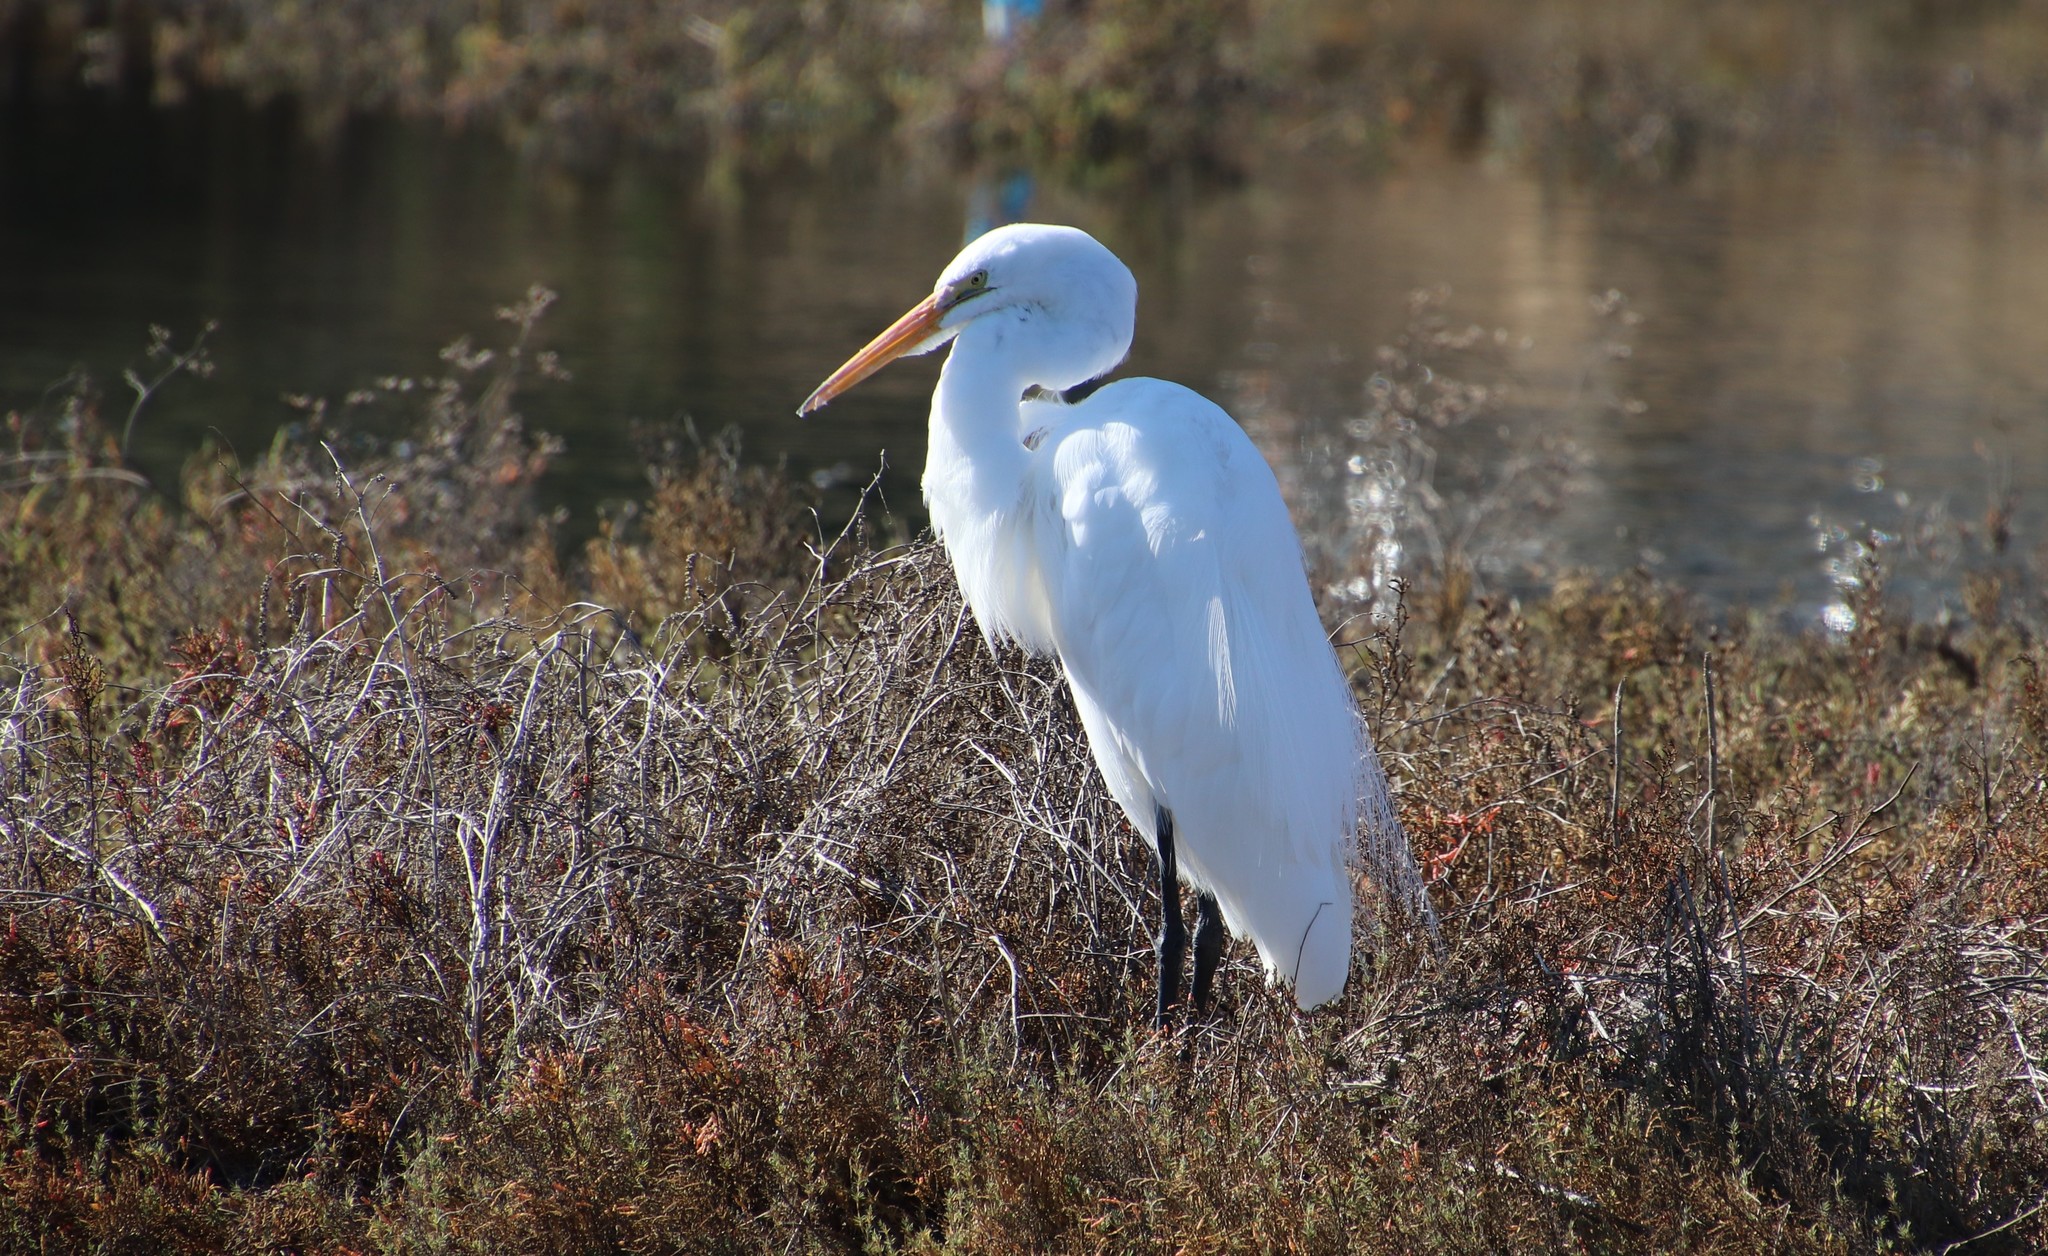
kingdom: Animalia
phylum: Chordata
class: Aves
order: Pelecaniformes
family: Ardeidae
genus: Ardea
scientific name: Ardea alba
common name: Great egret
